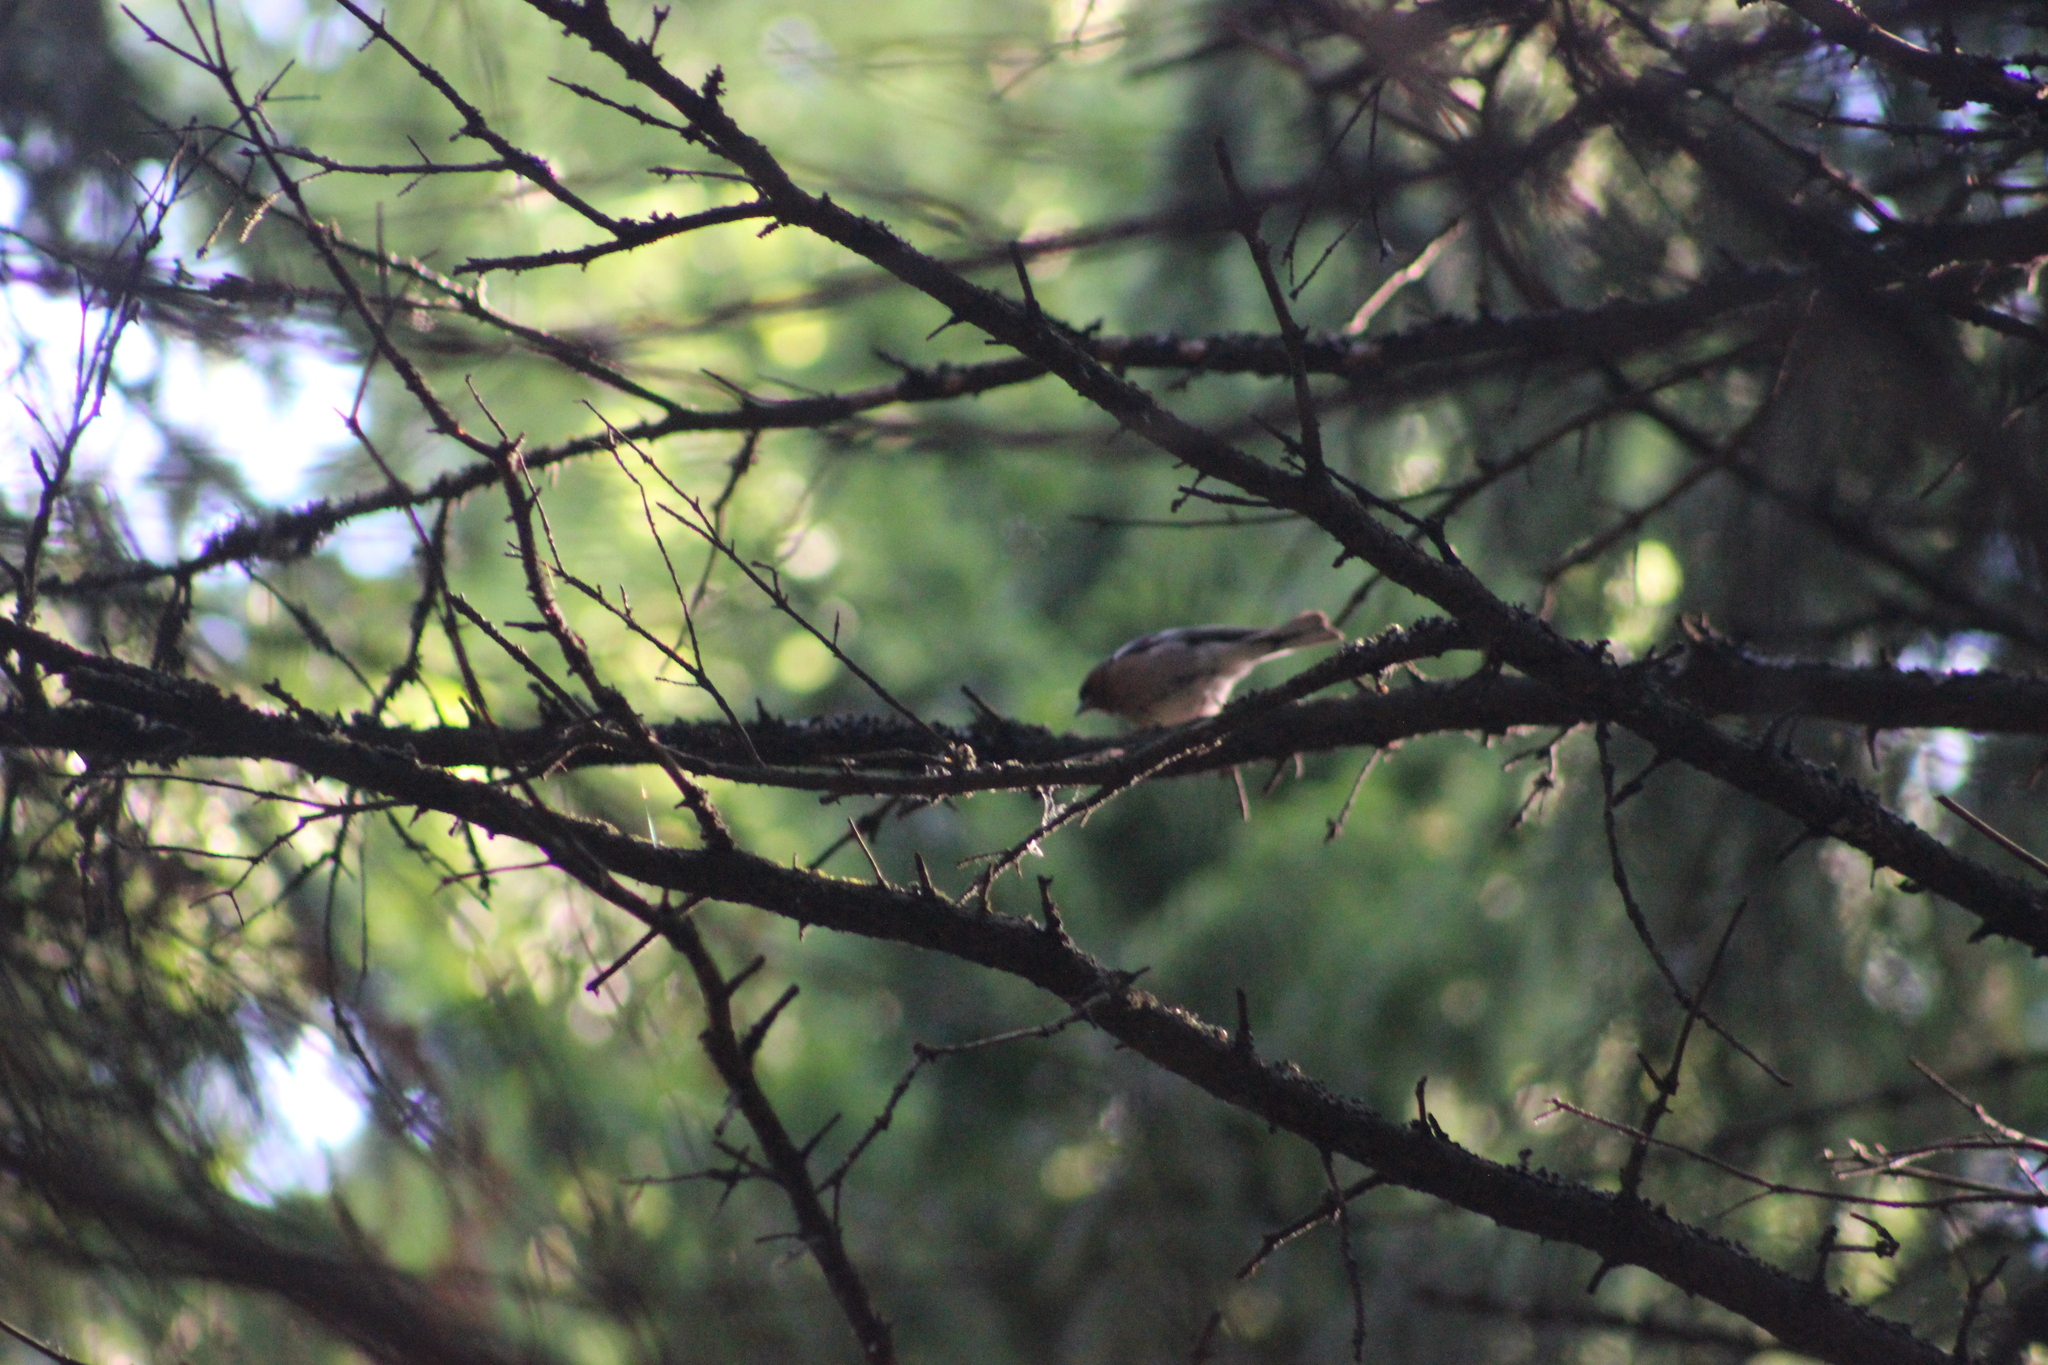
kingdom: Animalia
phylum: Chordata
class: Aves
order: Passeriformes
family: Fringillidae
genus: Fringilla
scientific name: Fringilla coelebs
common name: Common chaffinch
